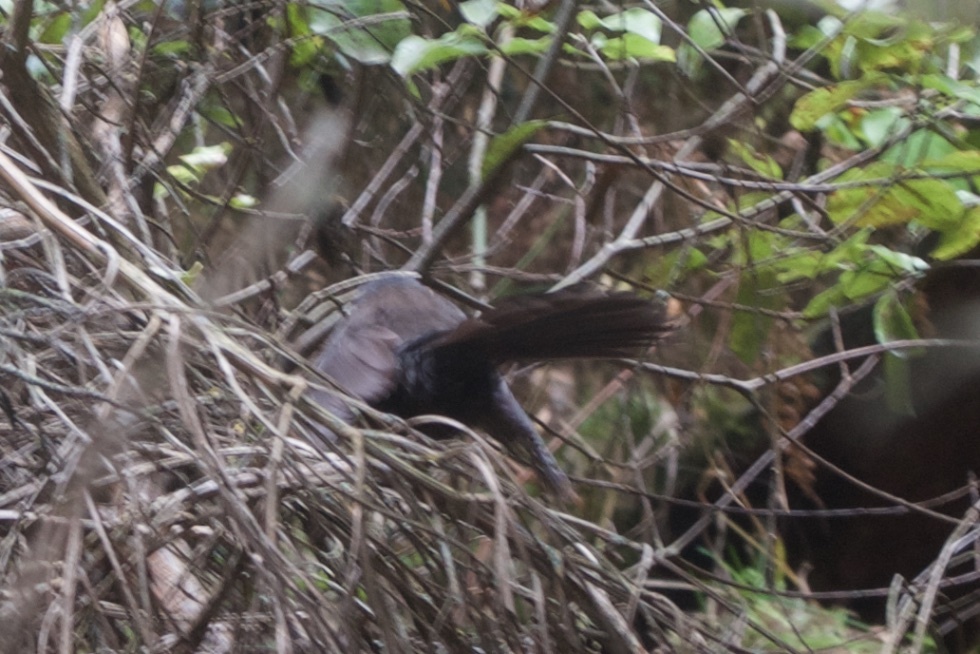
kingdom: Animalia
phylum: Chordata
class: Aves
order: Passeriformes
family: Rhipiduridae
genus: Rhipidura
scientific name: Rhipidura fuliginosa
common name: New zealand fantail
